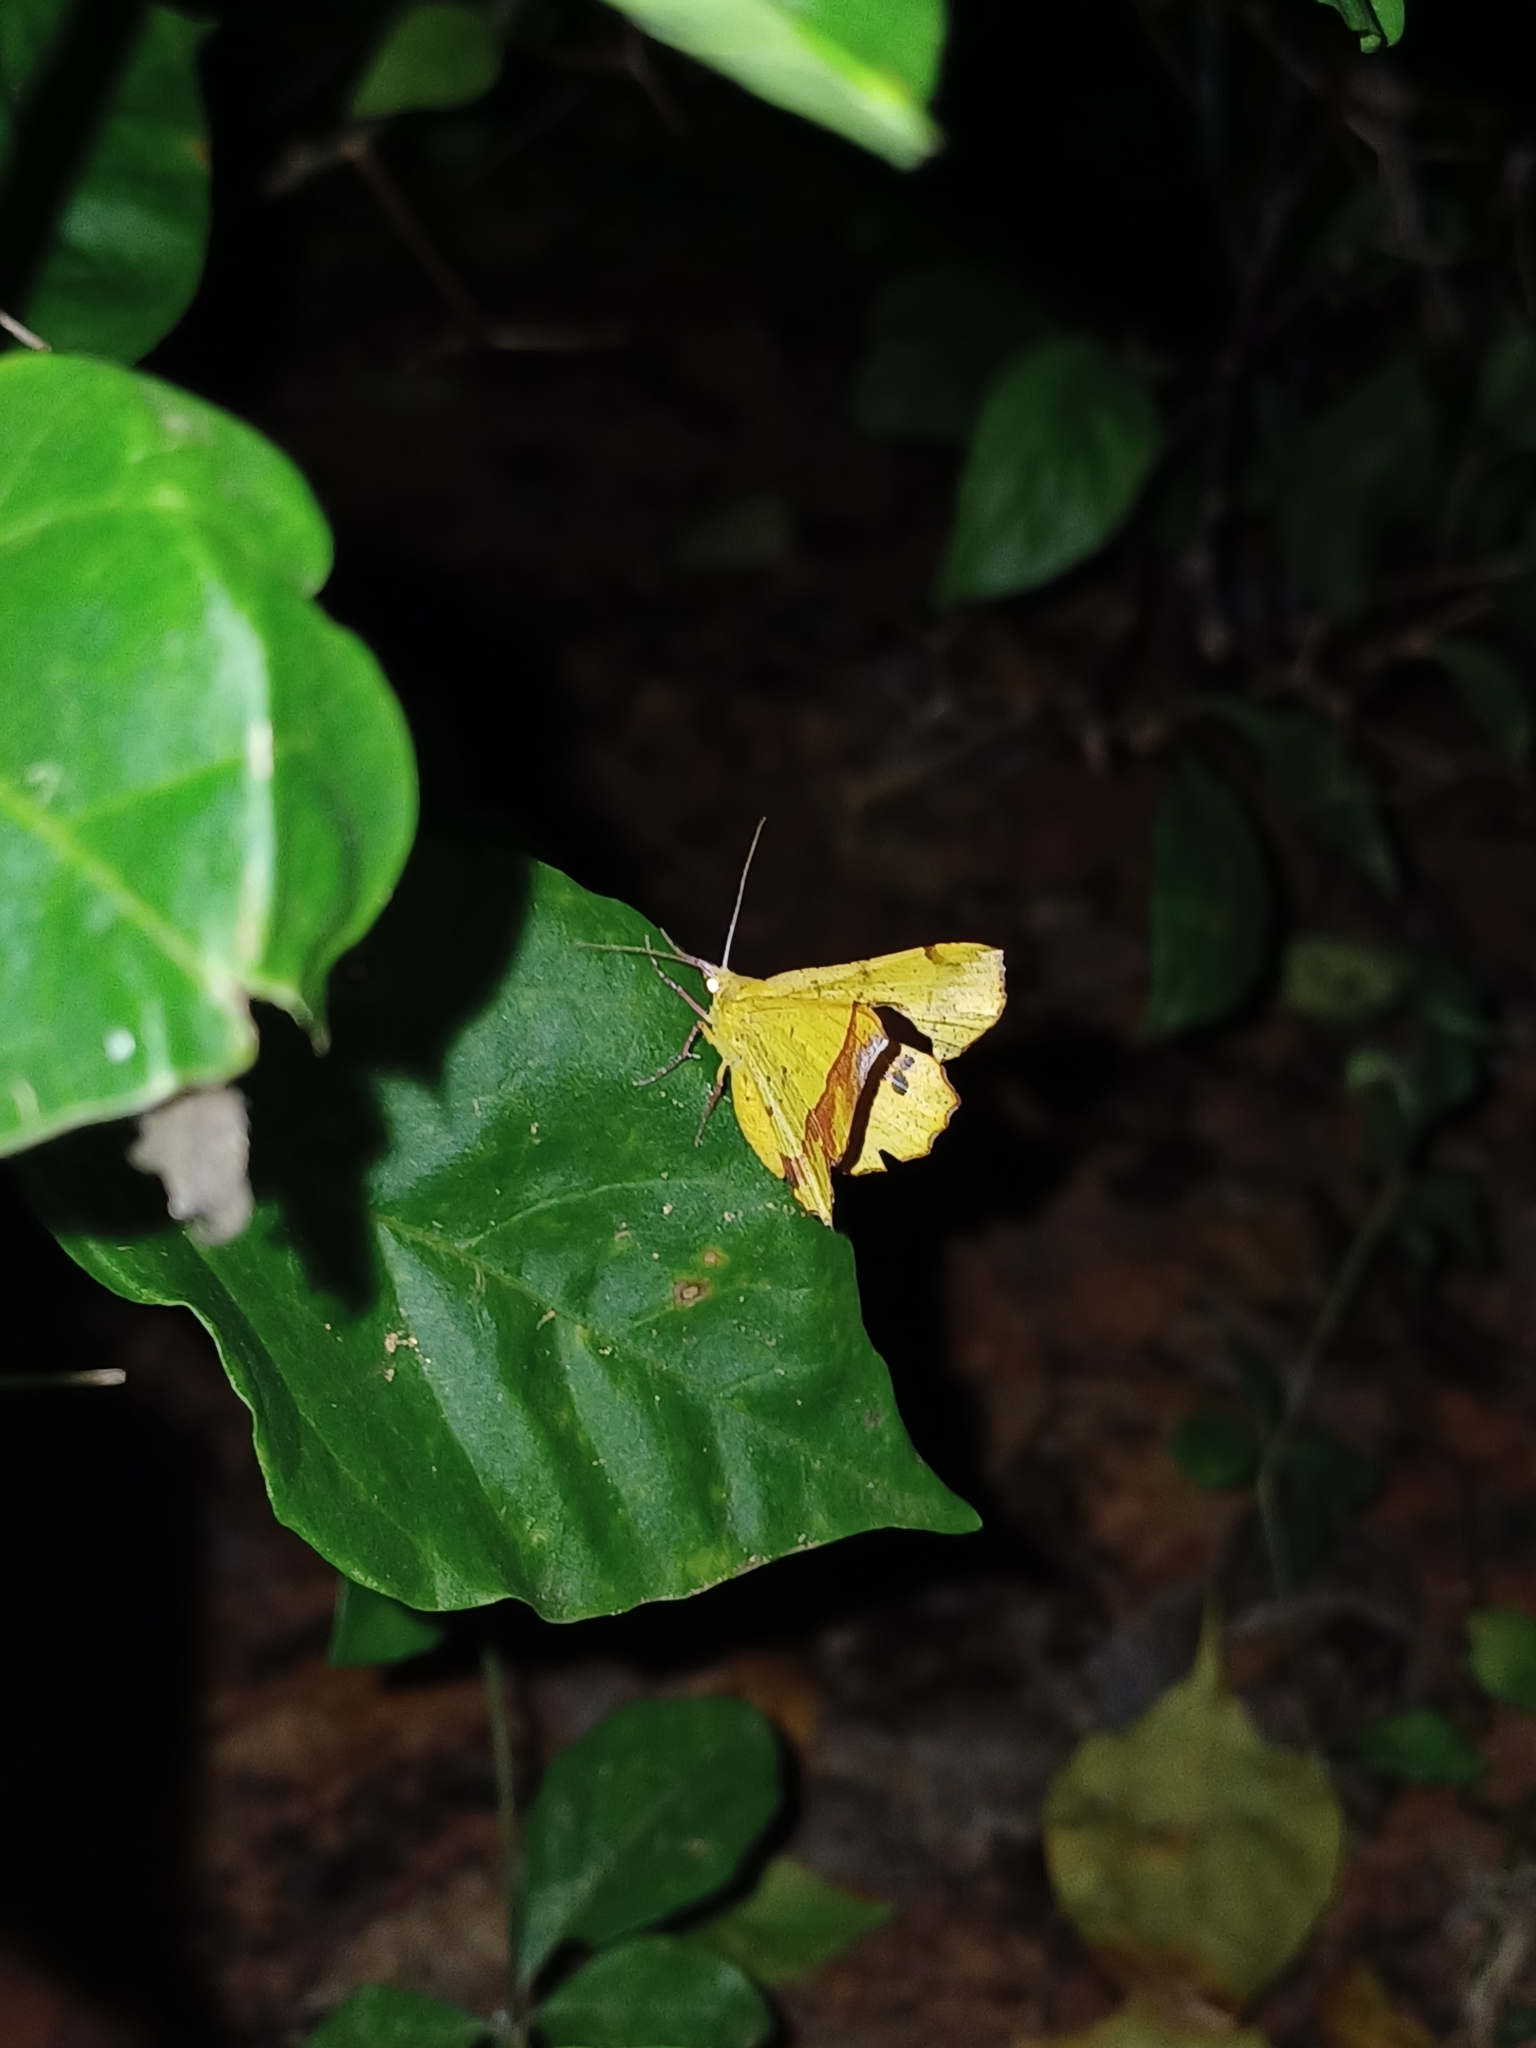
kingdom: Animalia
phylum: Arthropoda
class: Insecta
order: Lepidoptera
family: Geometridae
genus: Hyperythra
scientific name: Hyperythra lutea
